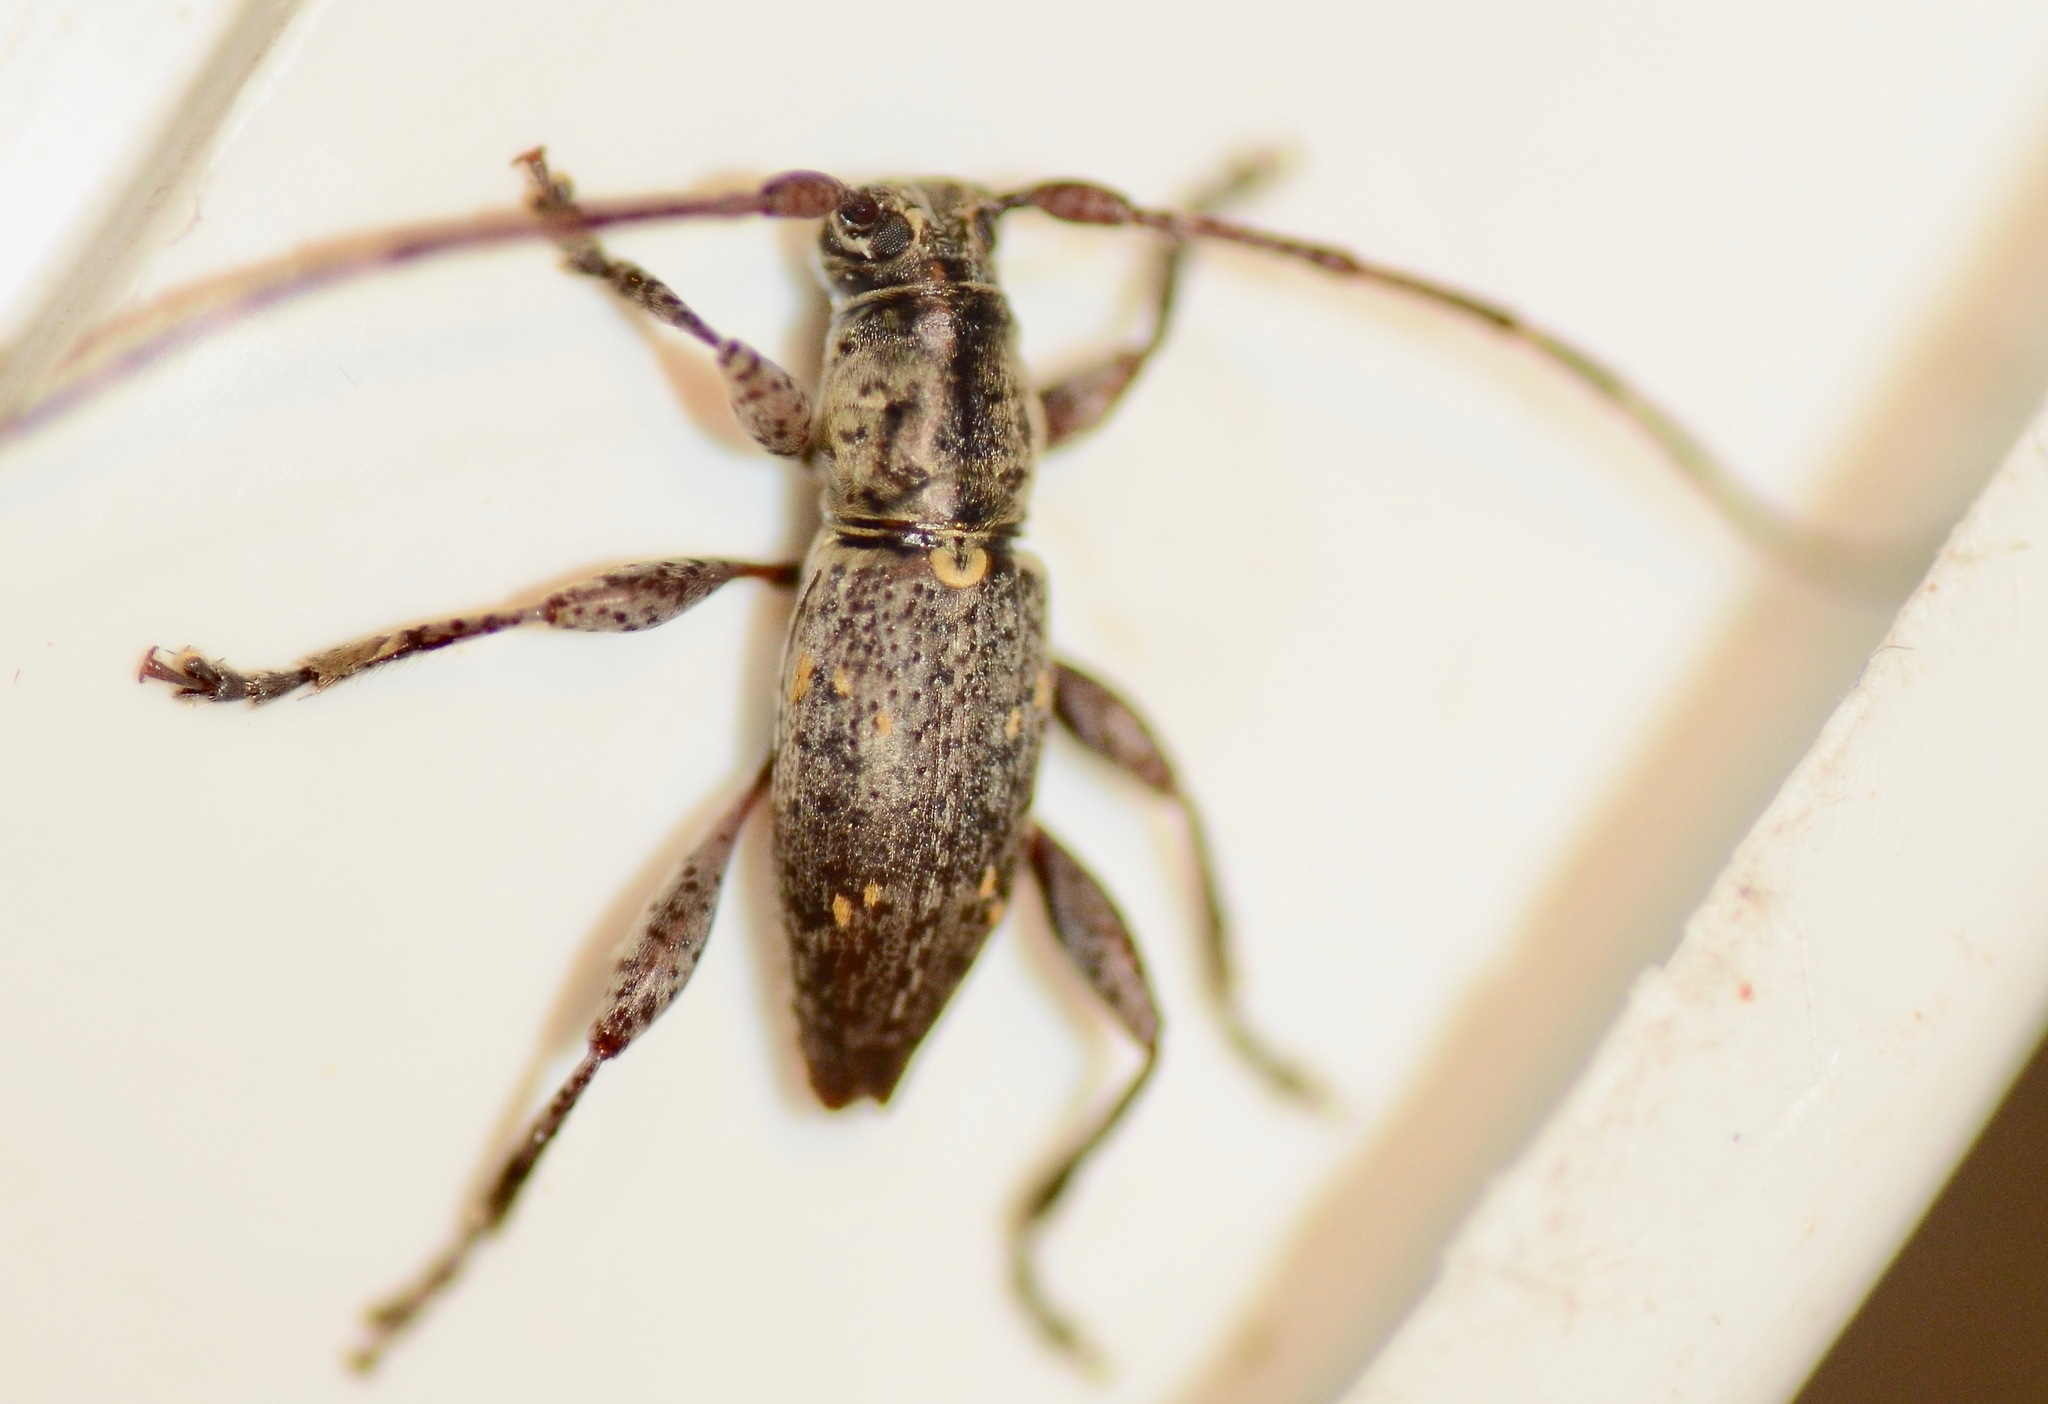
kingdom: Animalia
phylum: Arthropoda
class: Insecta
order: Coleoptera
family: Cerambycidae
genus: Xylotoles
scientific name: Xylotoles griseus
